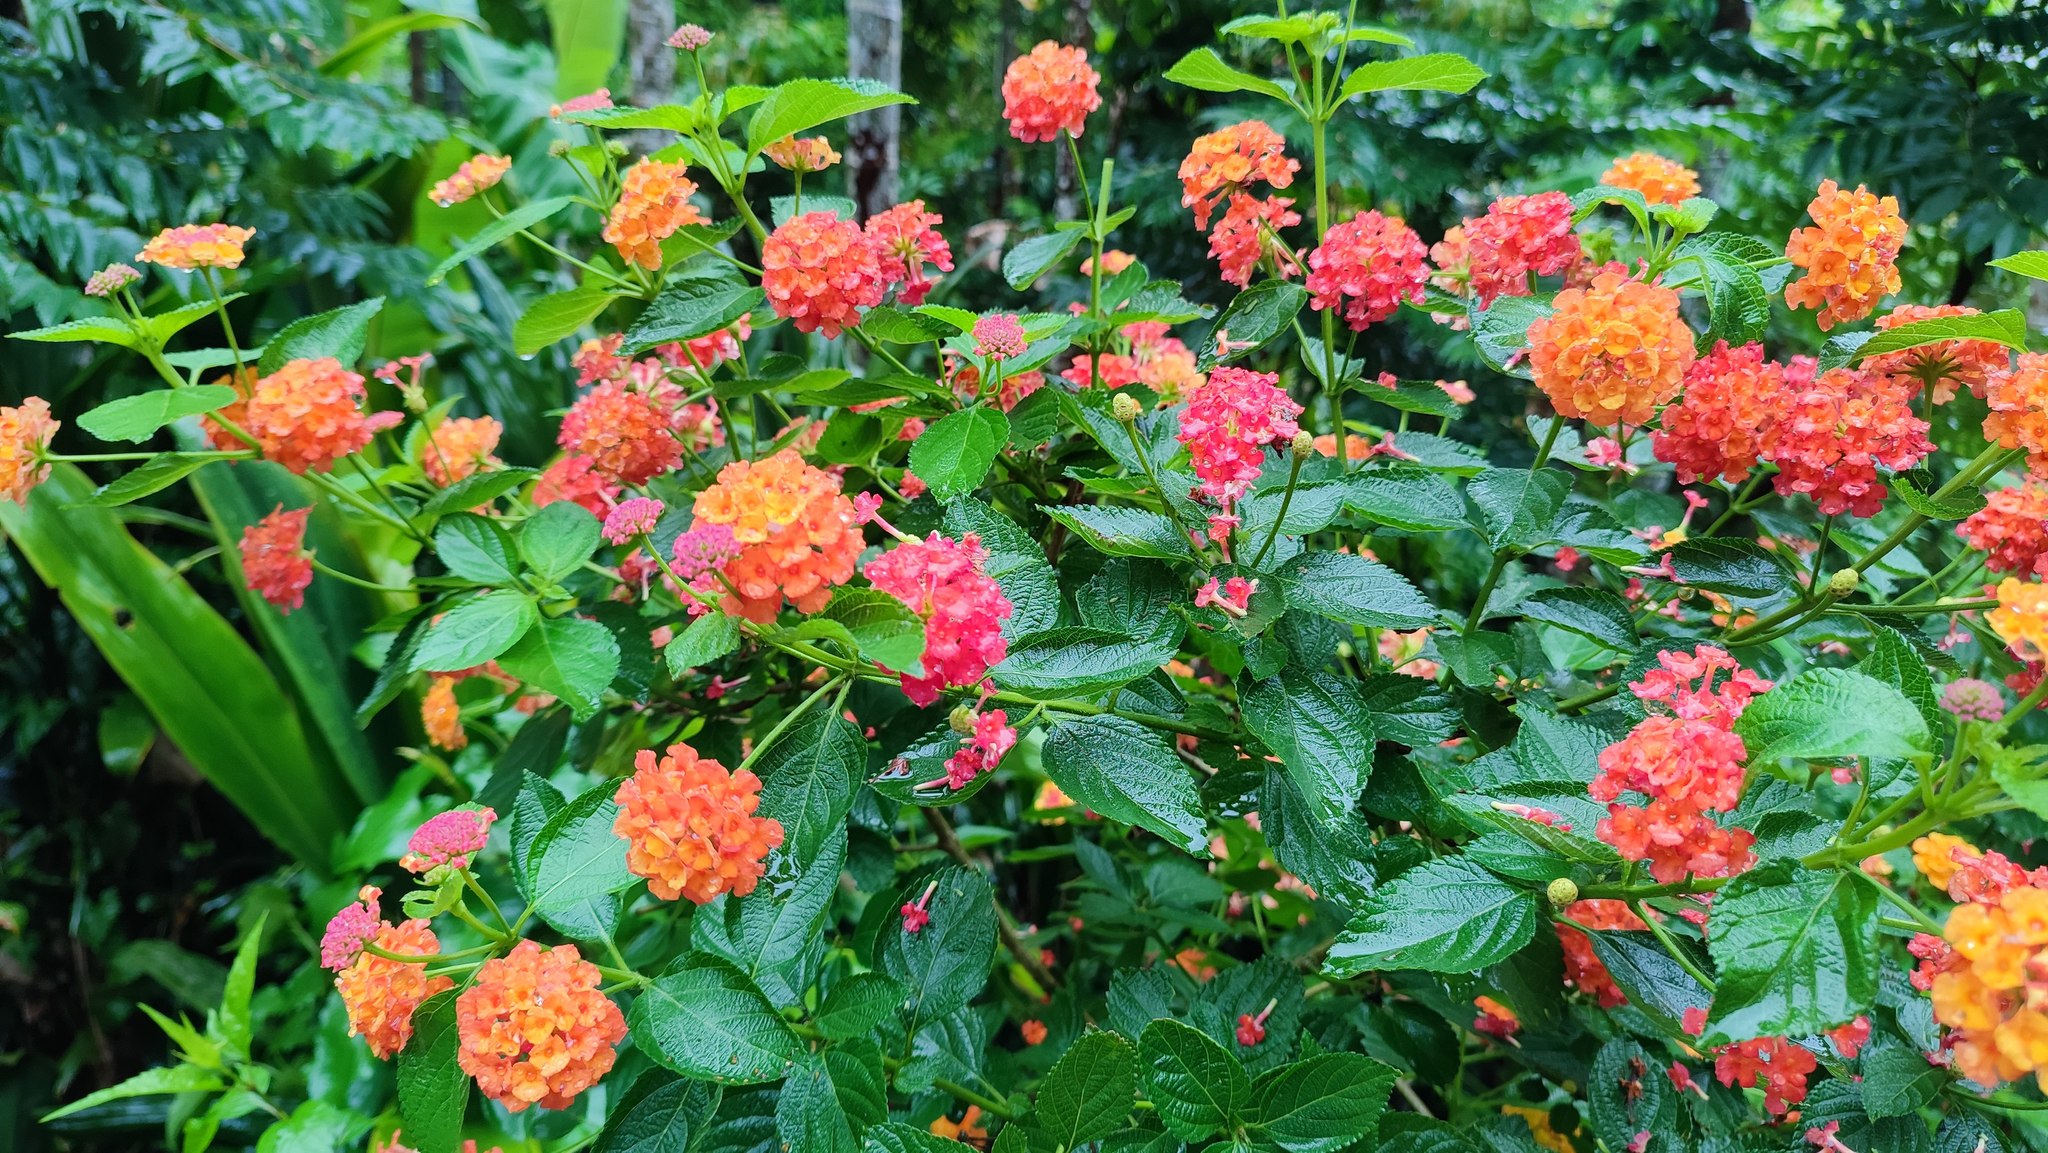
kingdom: Plantae
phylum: Tracheophyta
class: Magnoliopsida
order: Lamiales
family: Verbenaceae
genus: Lantana
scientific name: Lantana camara
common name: Lantana
